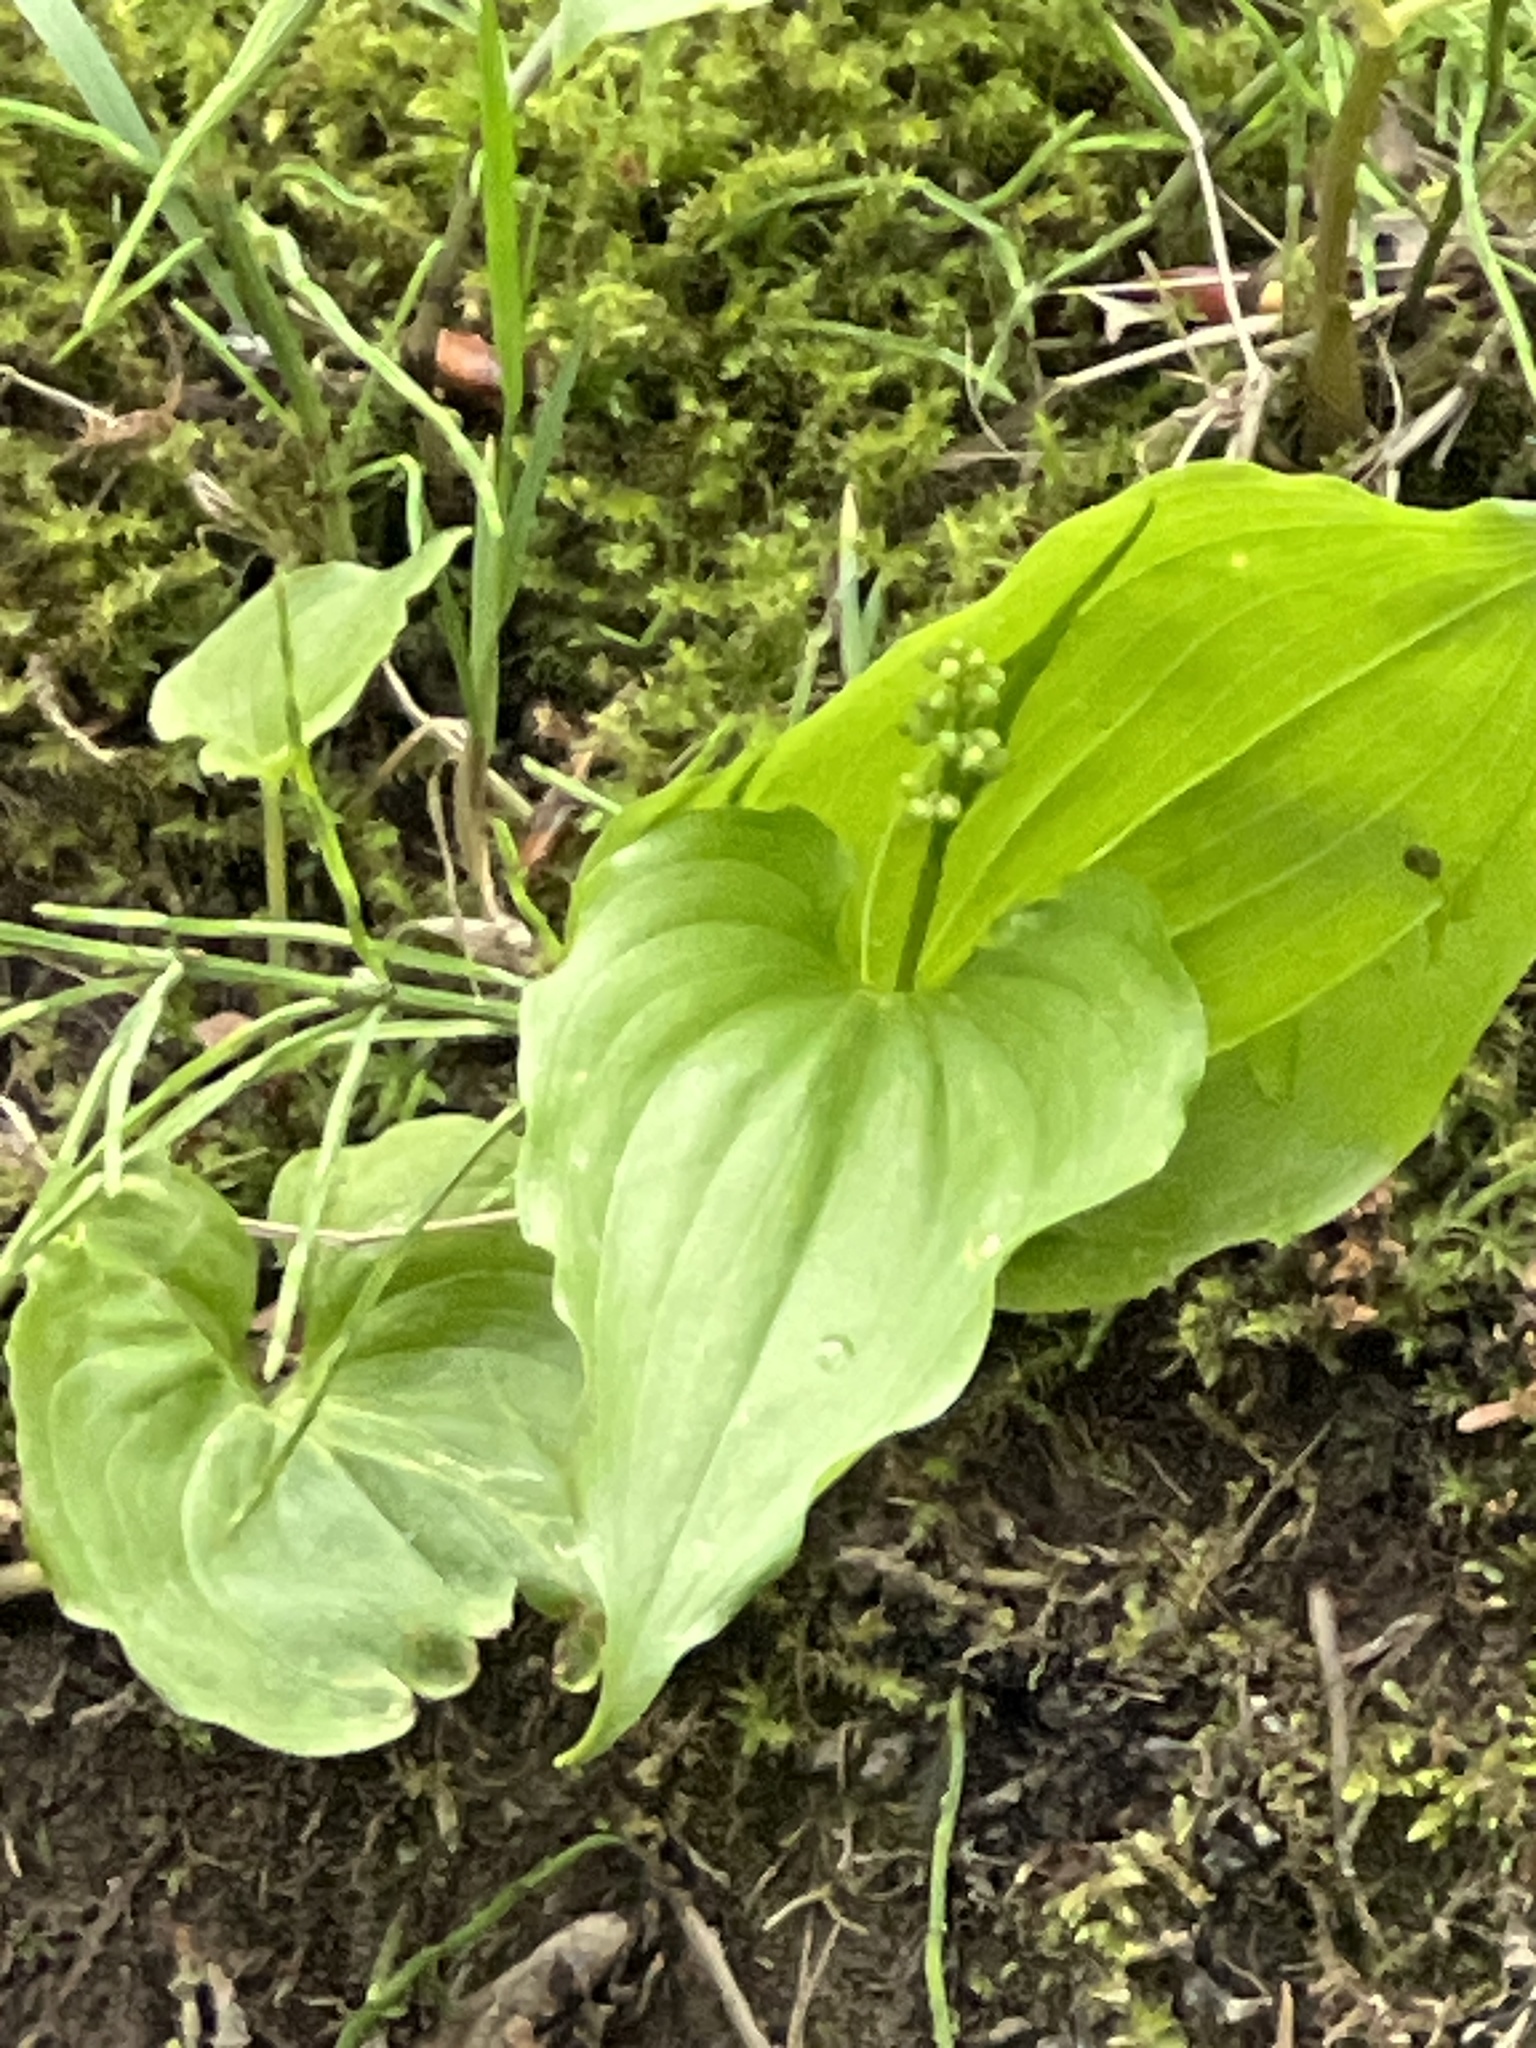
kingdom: Plantae
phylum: Tracheophyta
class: Liliopsida
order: Asparagales
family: Asparagaceae
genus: Maianthemum
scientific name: Maianthemum dilatatum
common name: False lily-of-the-valley
